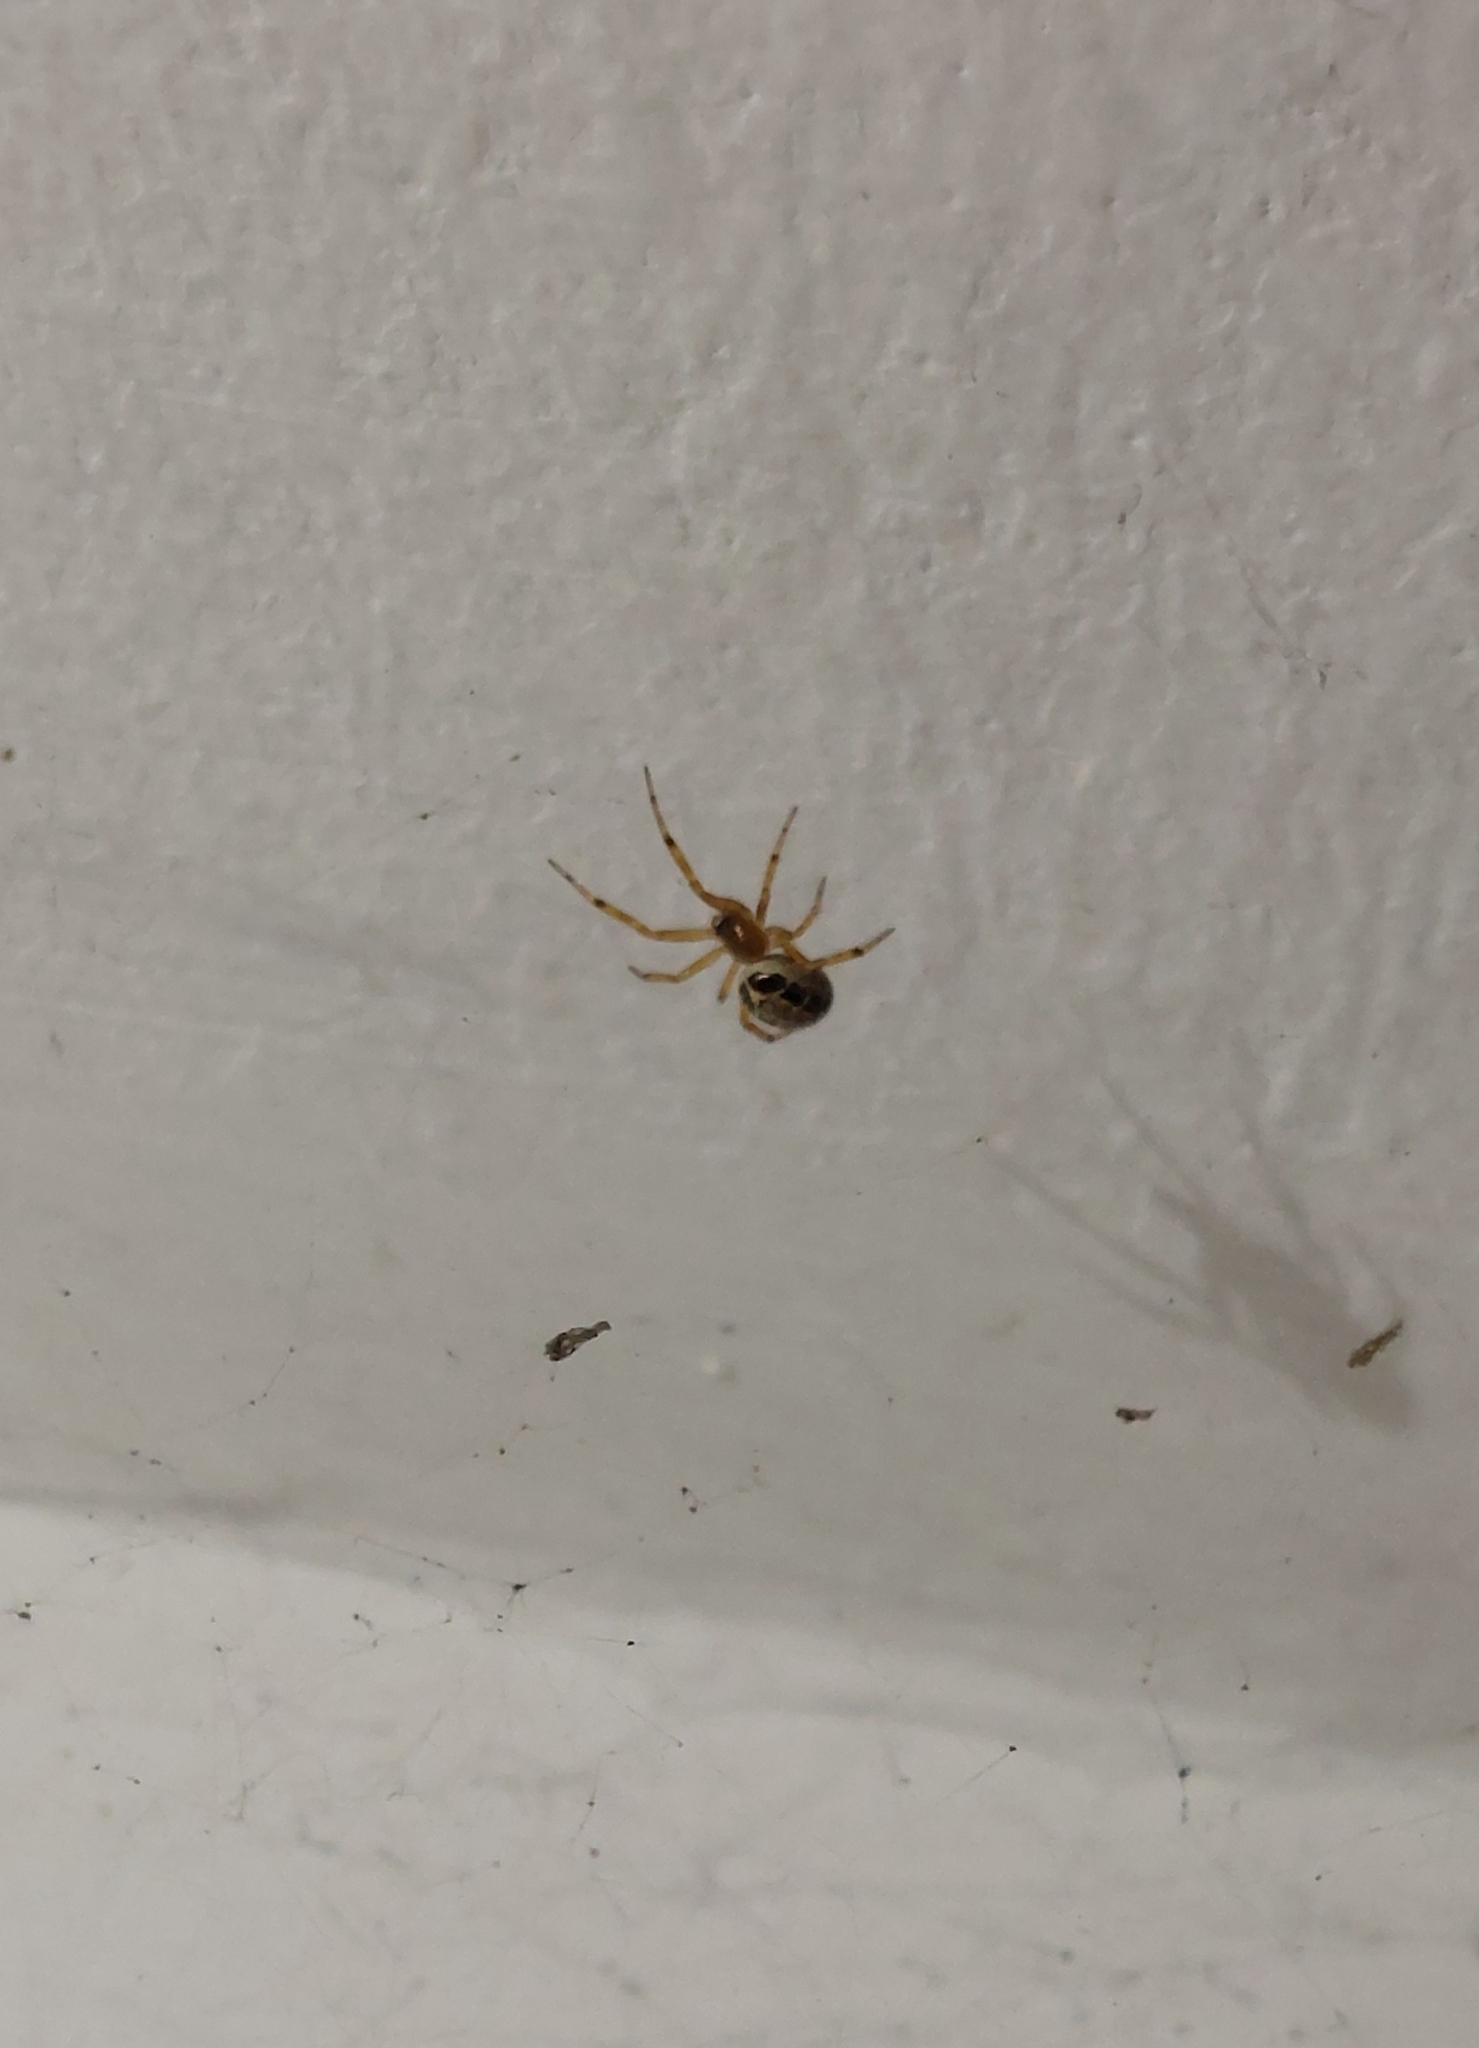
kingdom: Animalia
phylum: Arthropoda
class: Arachnida
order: Araneae
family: Theridiidae
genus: Steatoda
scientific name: Steatoda nobilis
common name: Cobweb weaver
